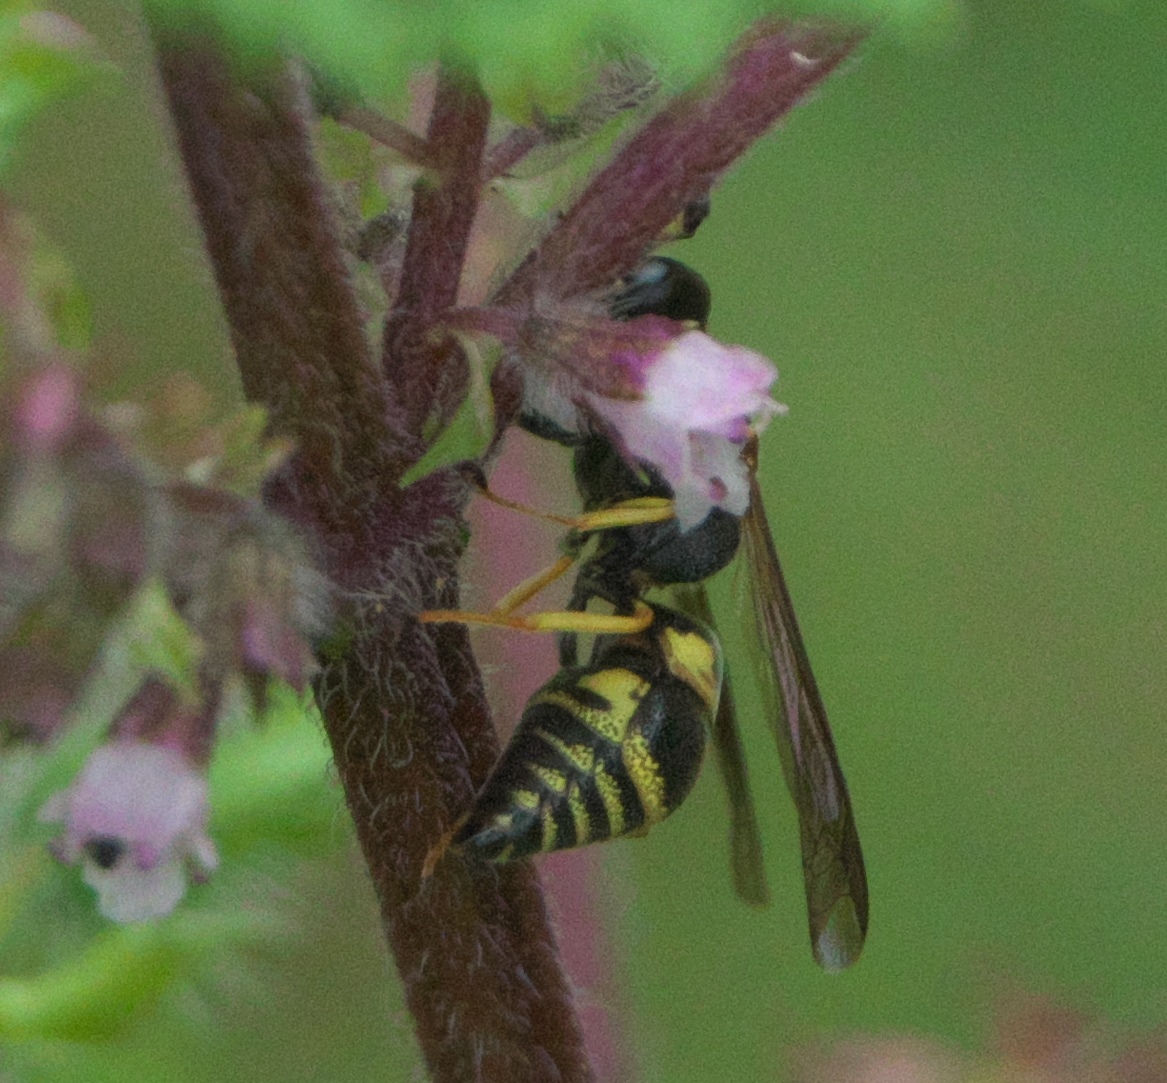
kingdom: Animalia
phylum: Arthropoda
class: Insecta
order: Hymenoptera
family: Eumenidae
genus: Euodynerus
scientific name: Euodynerus
